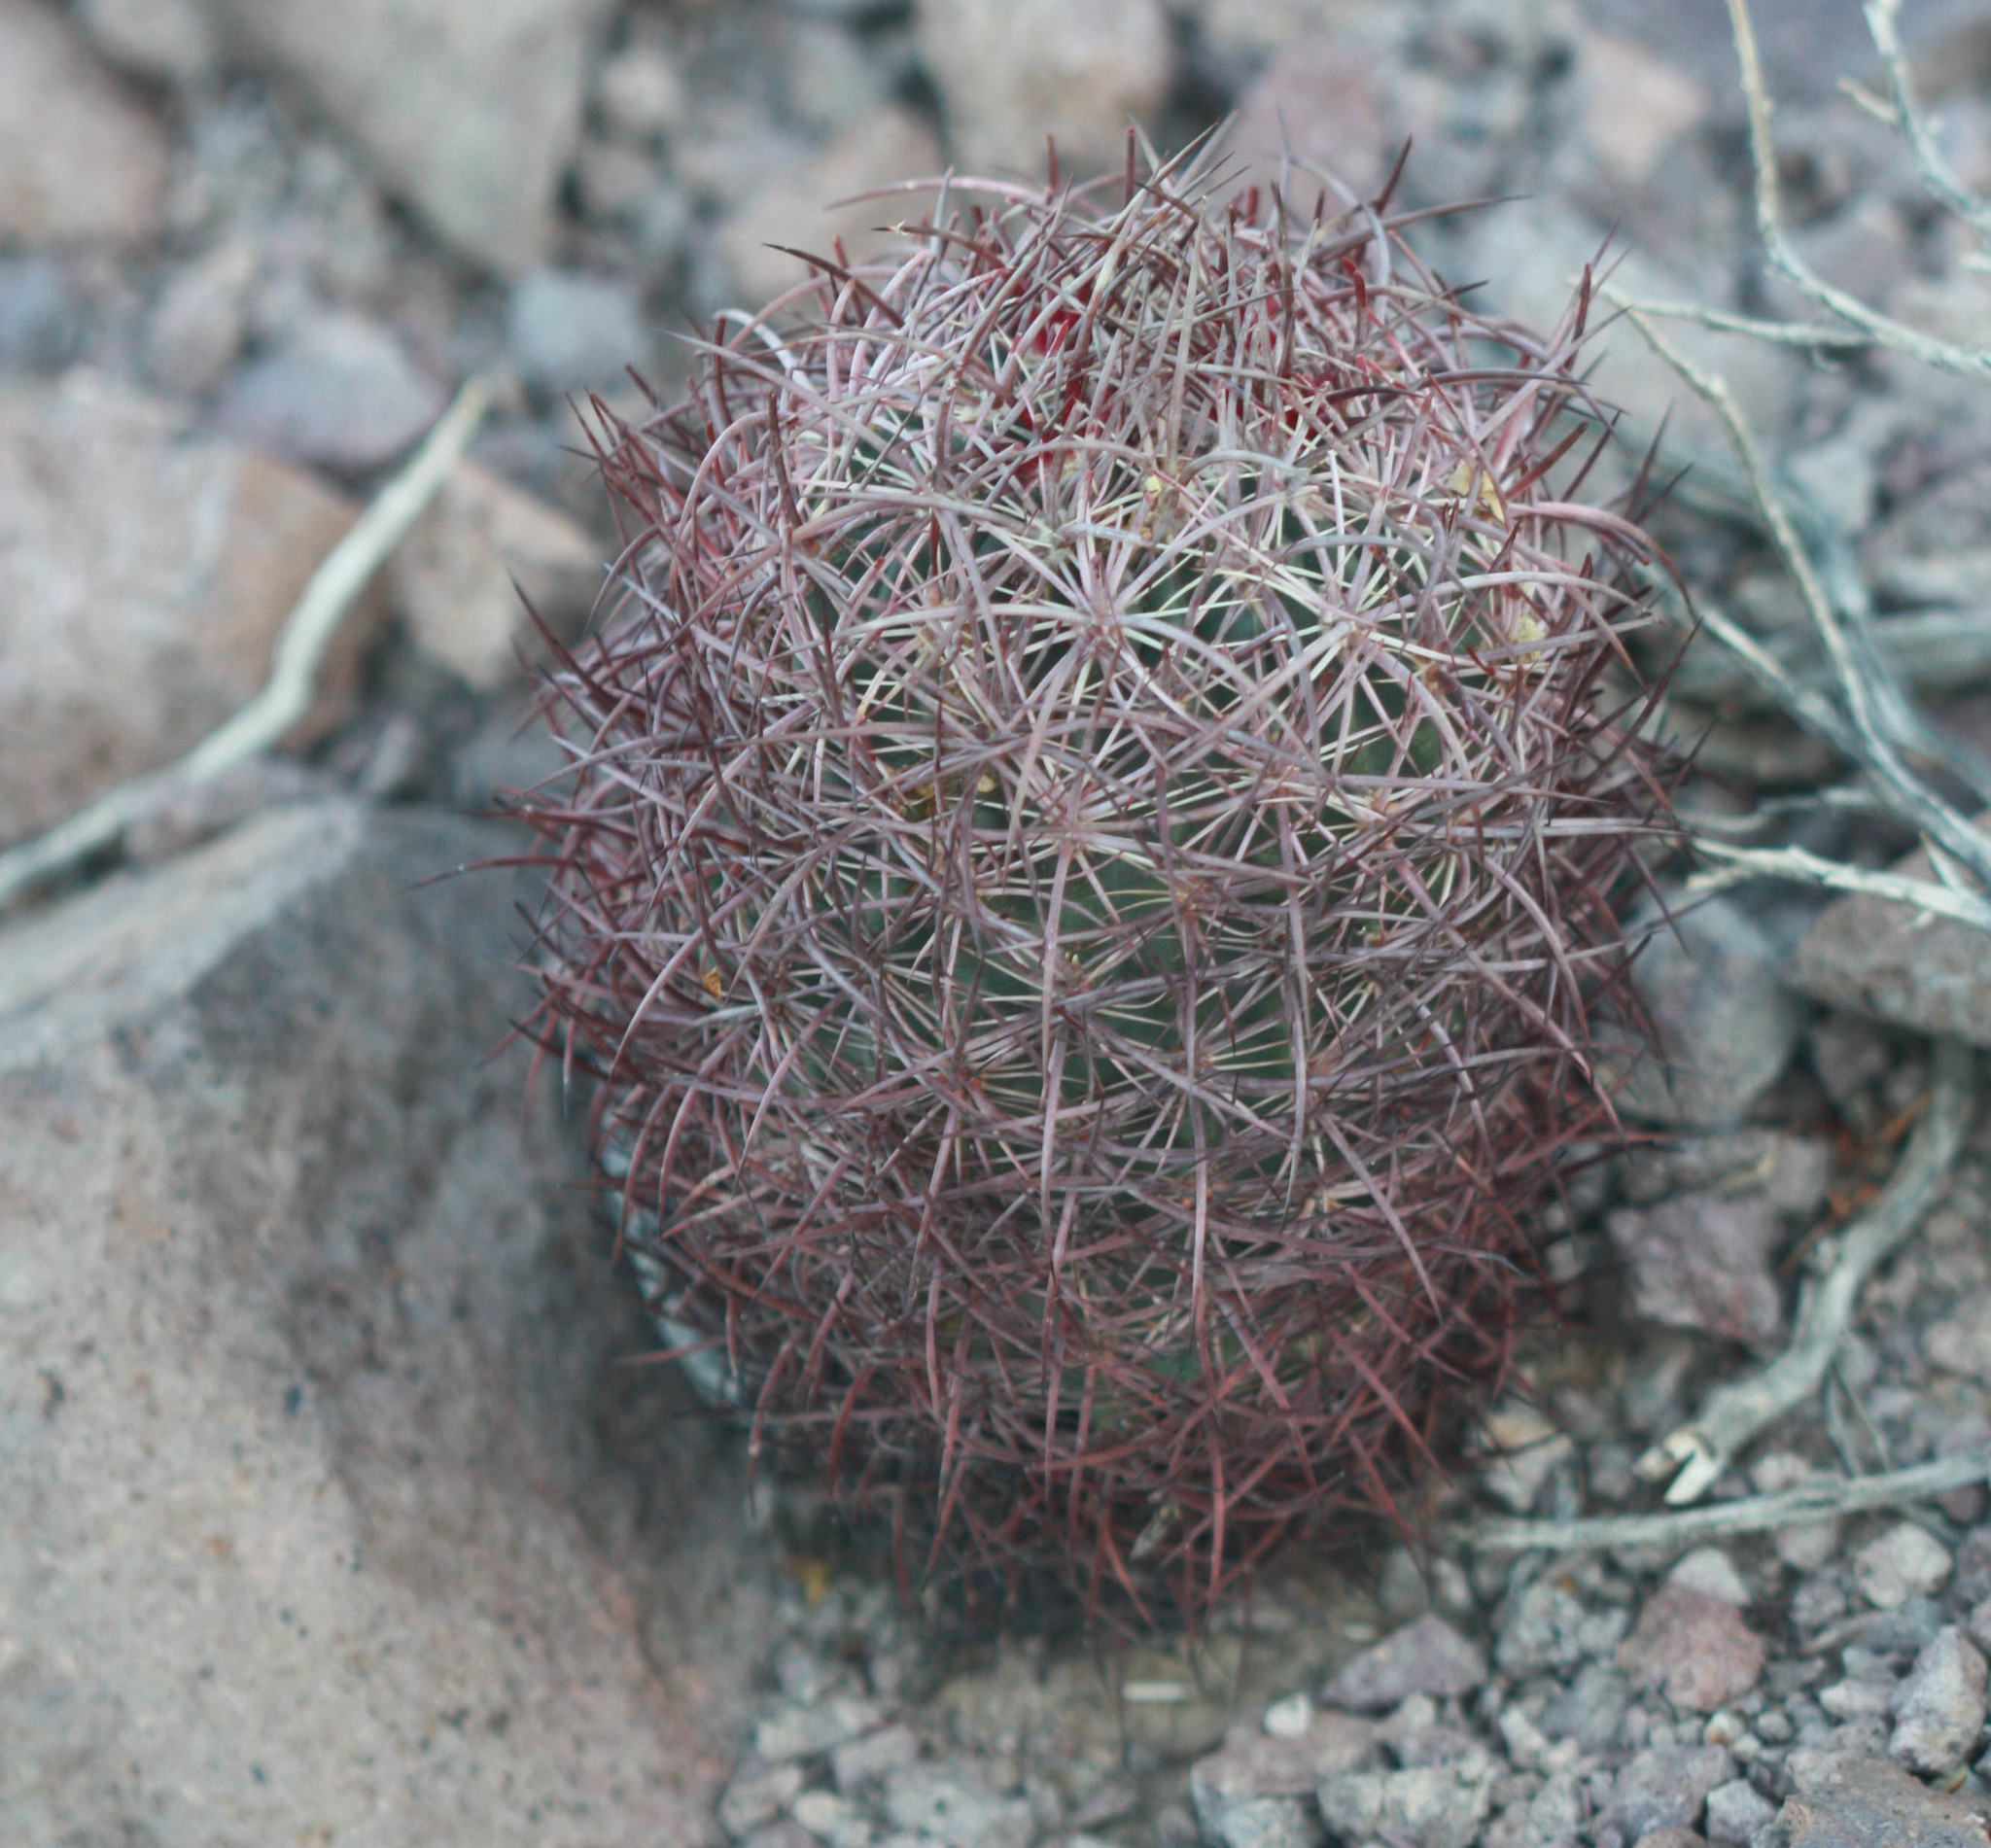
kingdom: Plantae
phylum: Tracheophyta
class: Magnoliopsida
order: Caryophyllales
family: Cactaceae
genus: Sclerocactus
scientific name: Sclerocactus johnsonii
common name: Eight-spine fishhook cactus
